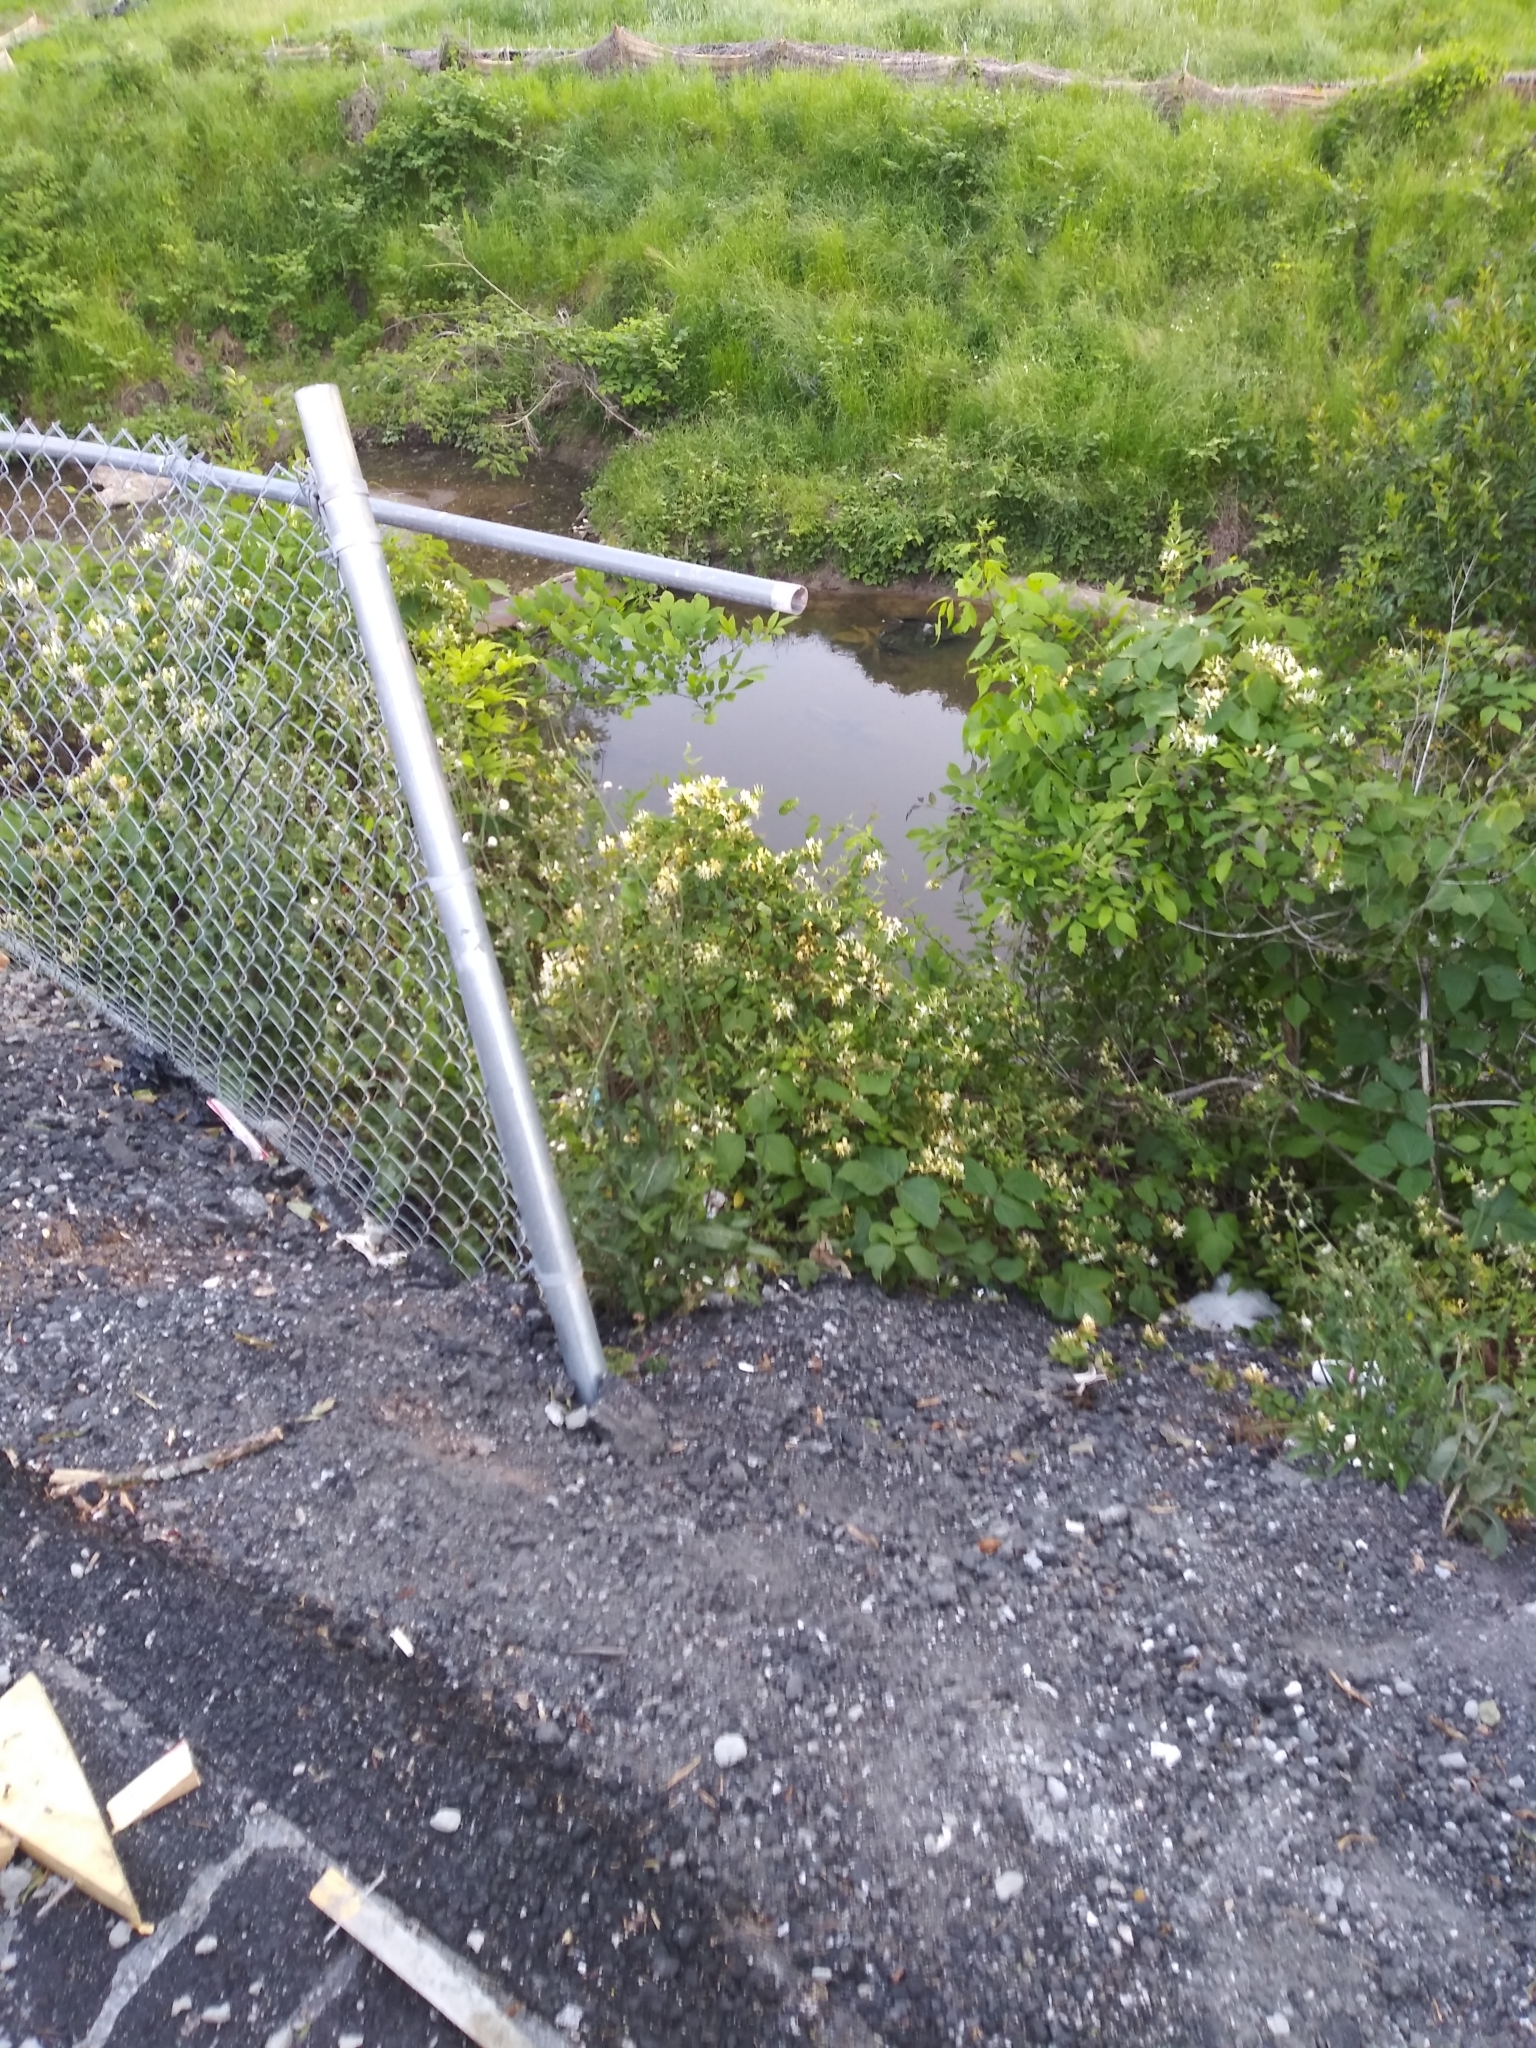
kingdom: Plantae
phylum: Tracheophyta
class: Magnoliopsida
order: Dipsacales
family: Caprifoliaceae
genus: Lonicera
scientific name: Lonicera japonica
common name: Japanese honeysuckle
